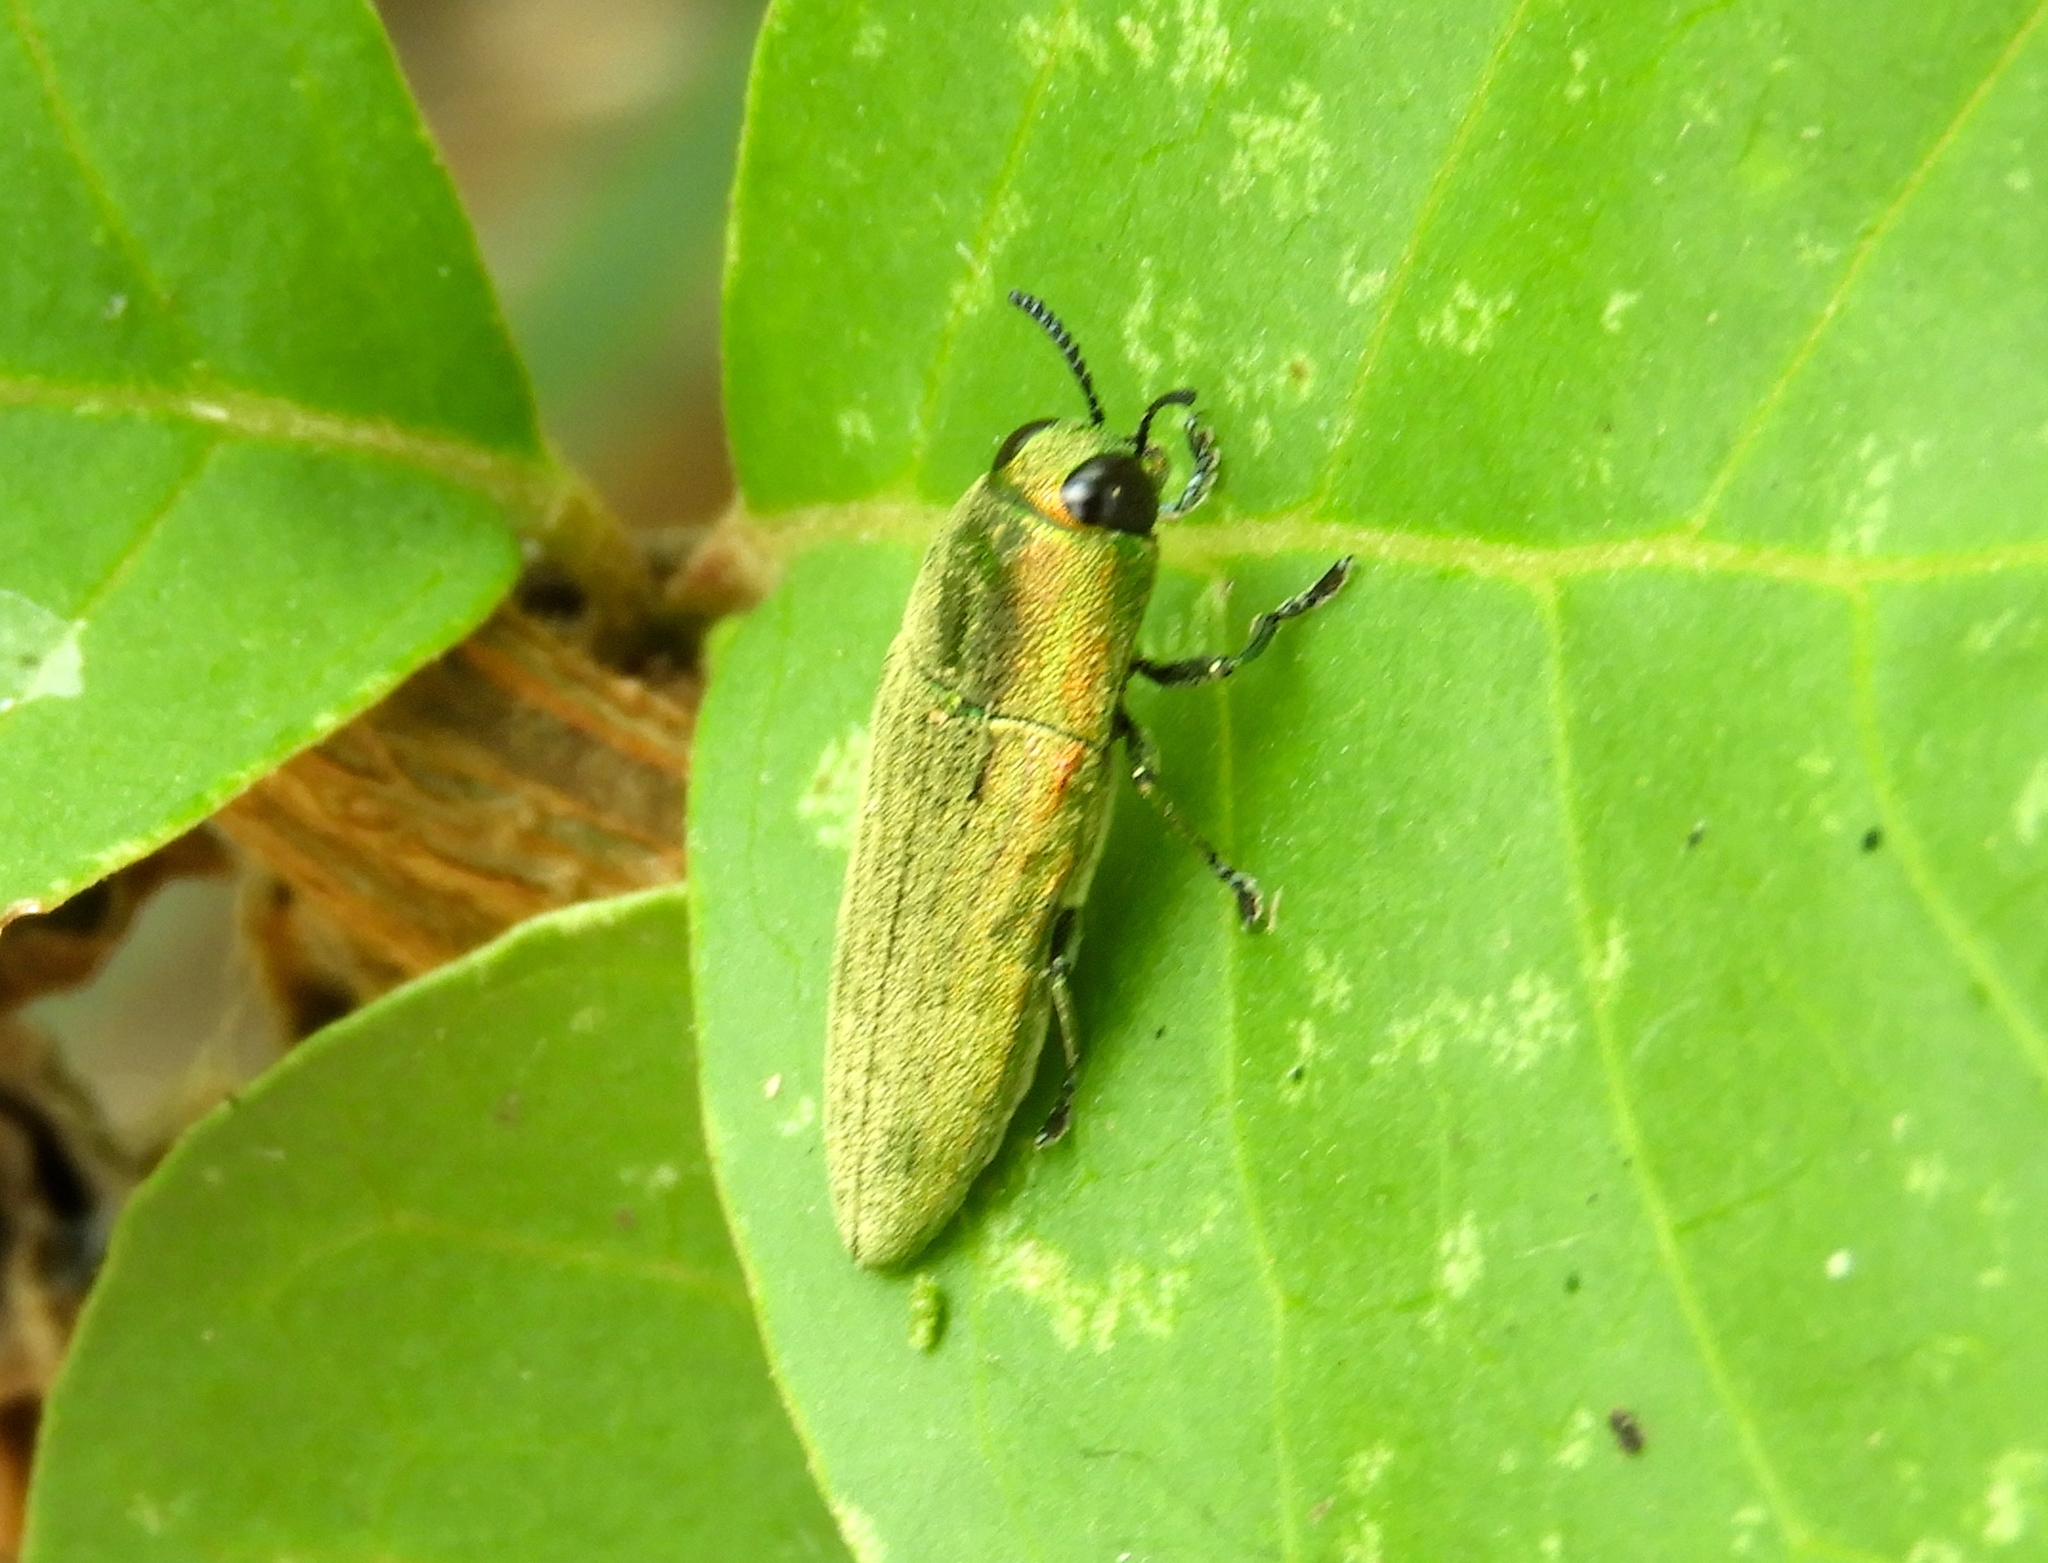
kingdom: Animalia
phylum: Arthropoda
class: Insecta
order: Coleoptera
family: Buprestidae
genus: Agaeocera
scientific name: Agaeocera scintillans
